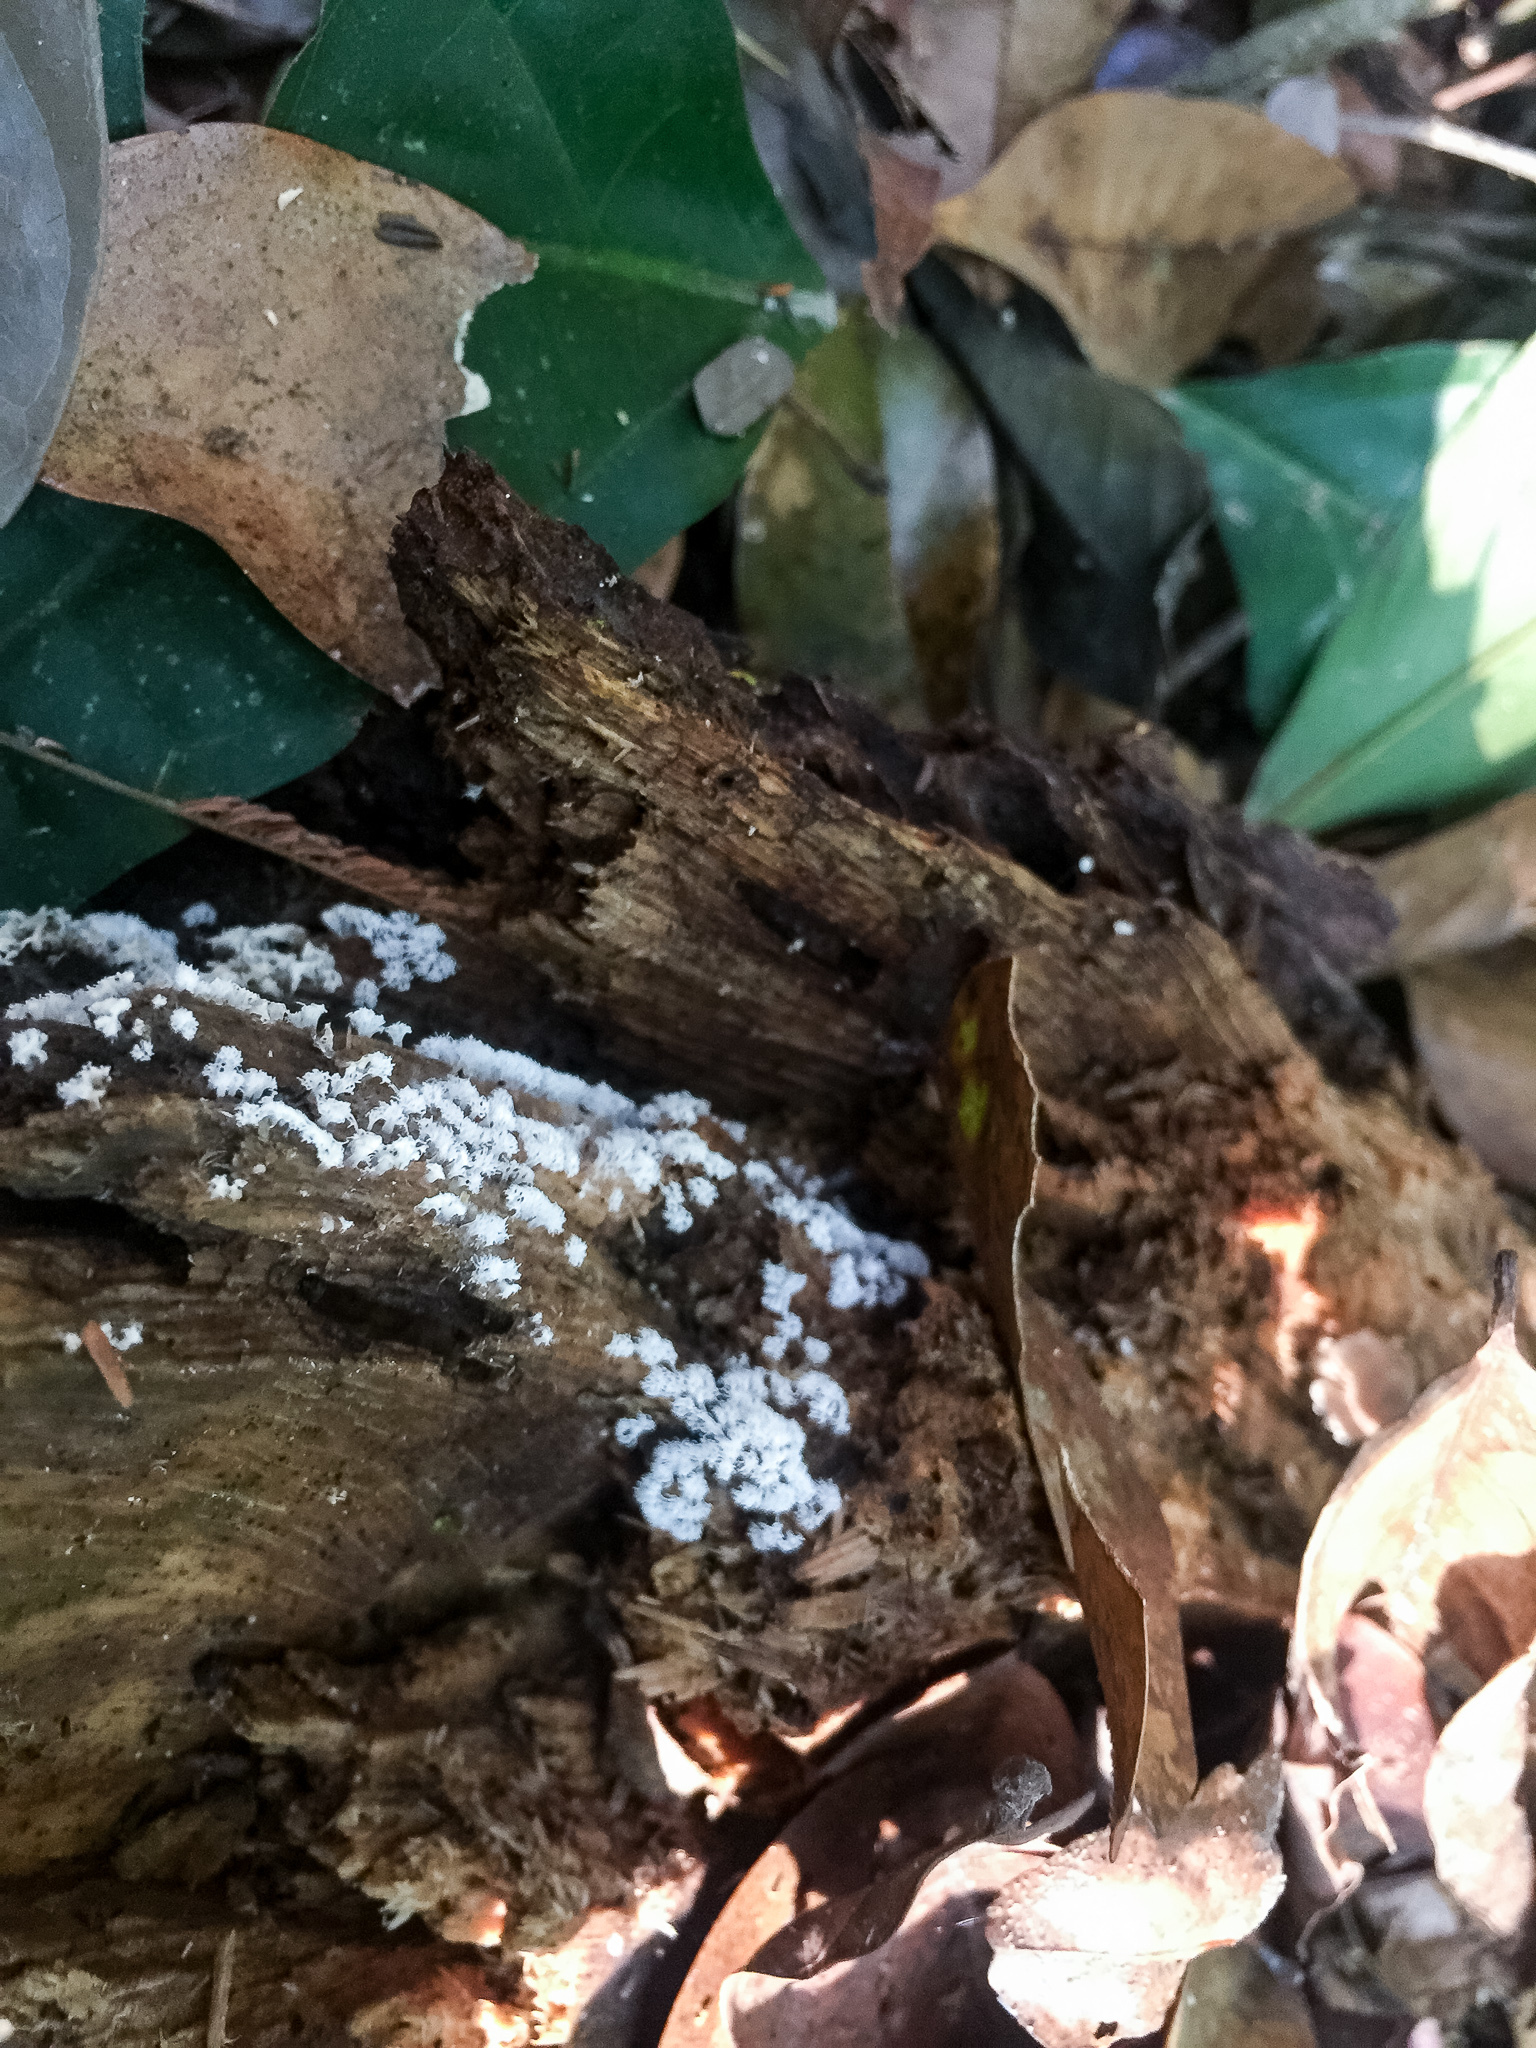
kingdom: Protozoa
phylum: Mycetozoa
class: Protosteliomycetes
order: Ceratiomyxales
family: Ceratiomyxaceae
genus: Ceratiomyxa
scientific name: Ceratiomyxa fruticulosa
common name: Honeycomb coral slime mold
